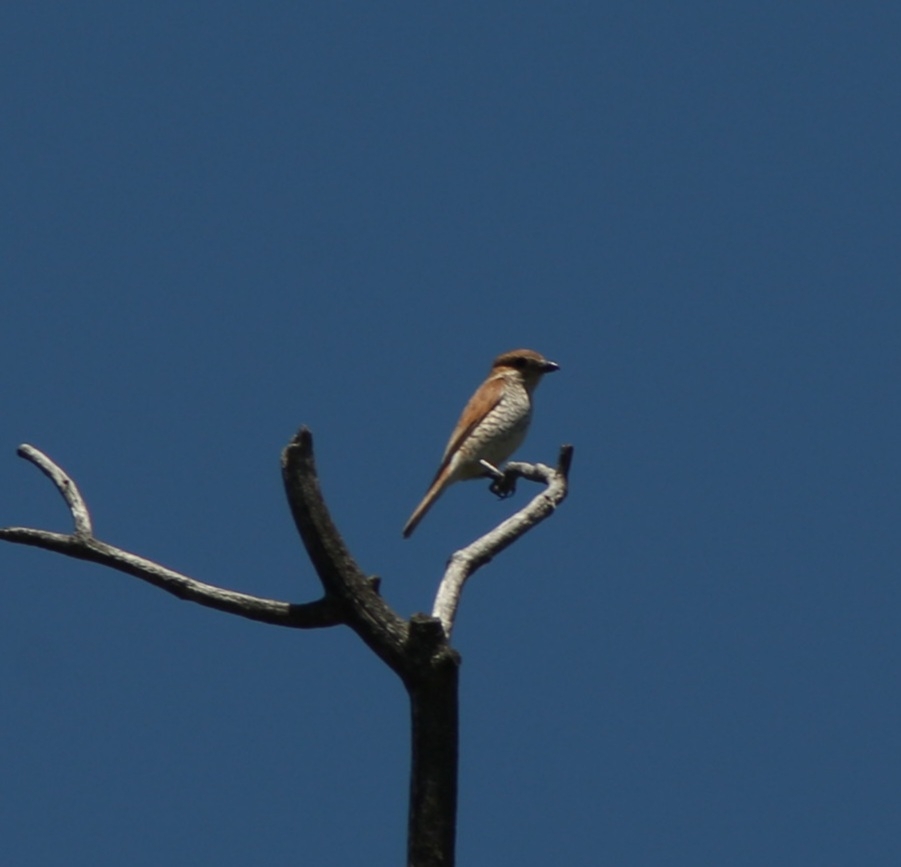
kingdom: Animalia
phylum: Chordata
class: Aves
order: Passeriformes
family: Laniidae
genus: Lanius
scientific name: Lanius collurio
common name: Red-backed shrike
